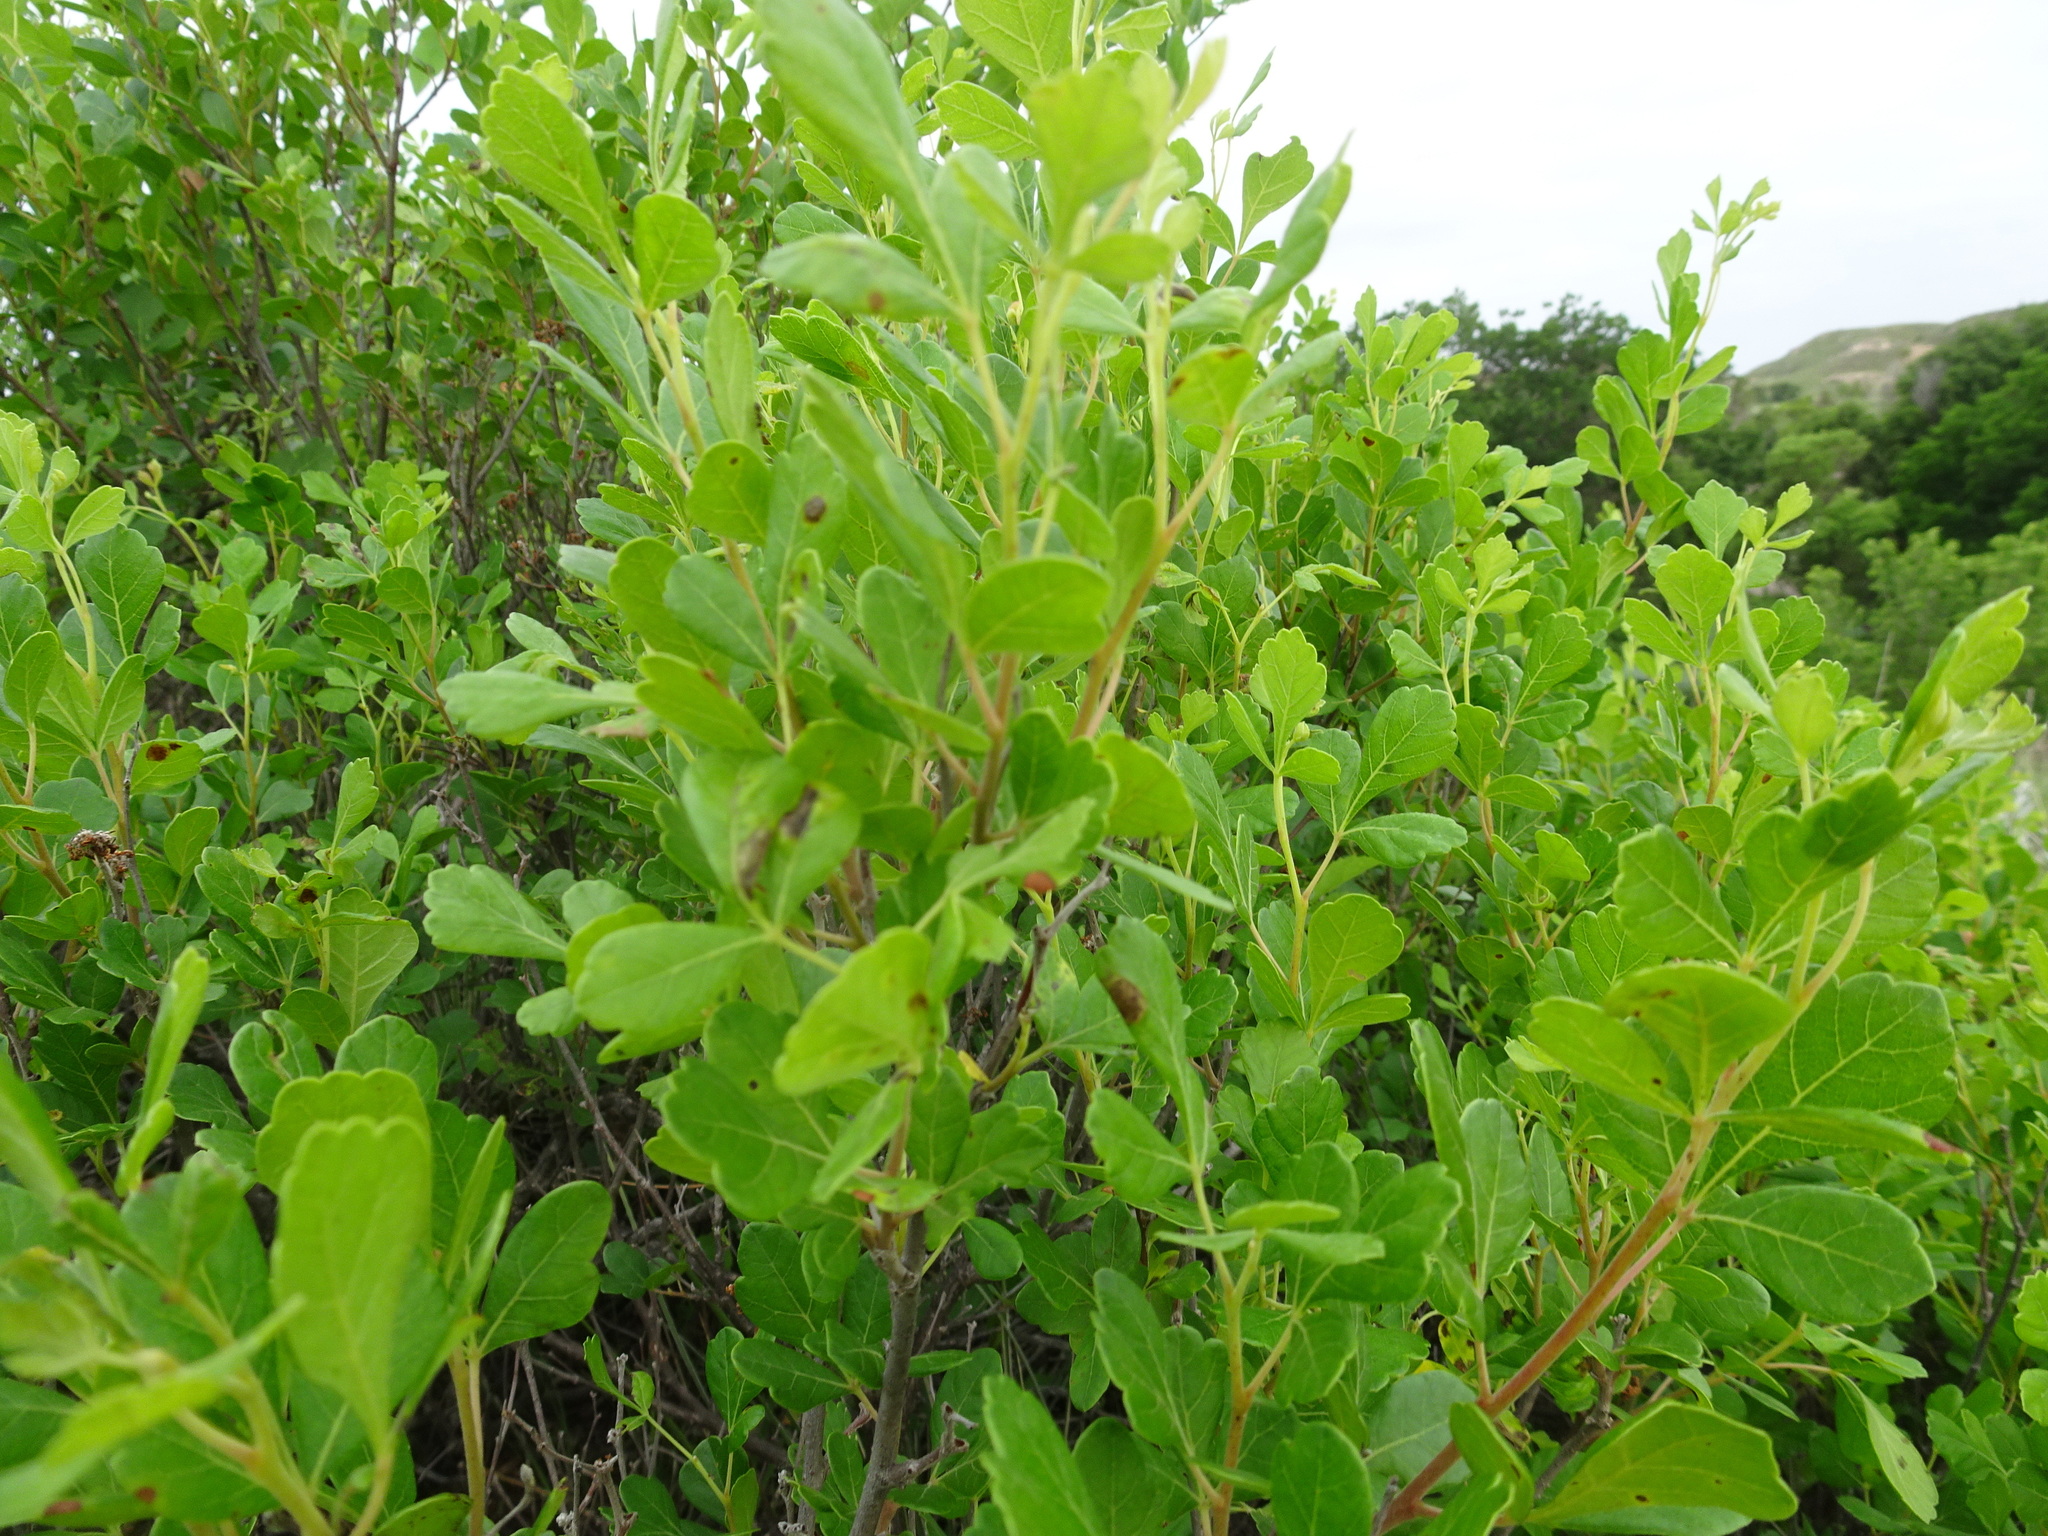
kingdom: Plantae
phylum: Tracheophyta
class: Magnoliopsida
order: Sapindales
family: Anacardiaceae
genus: Rhus
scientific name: Rhus aromatica
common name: Aromatic sumac
